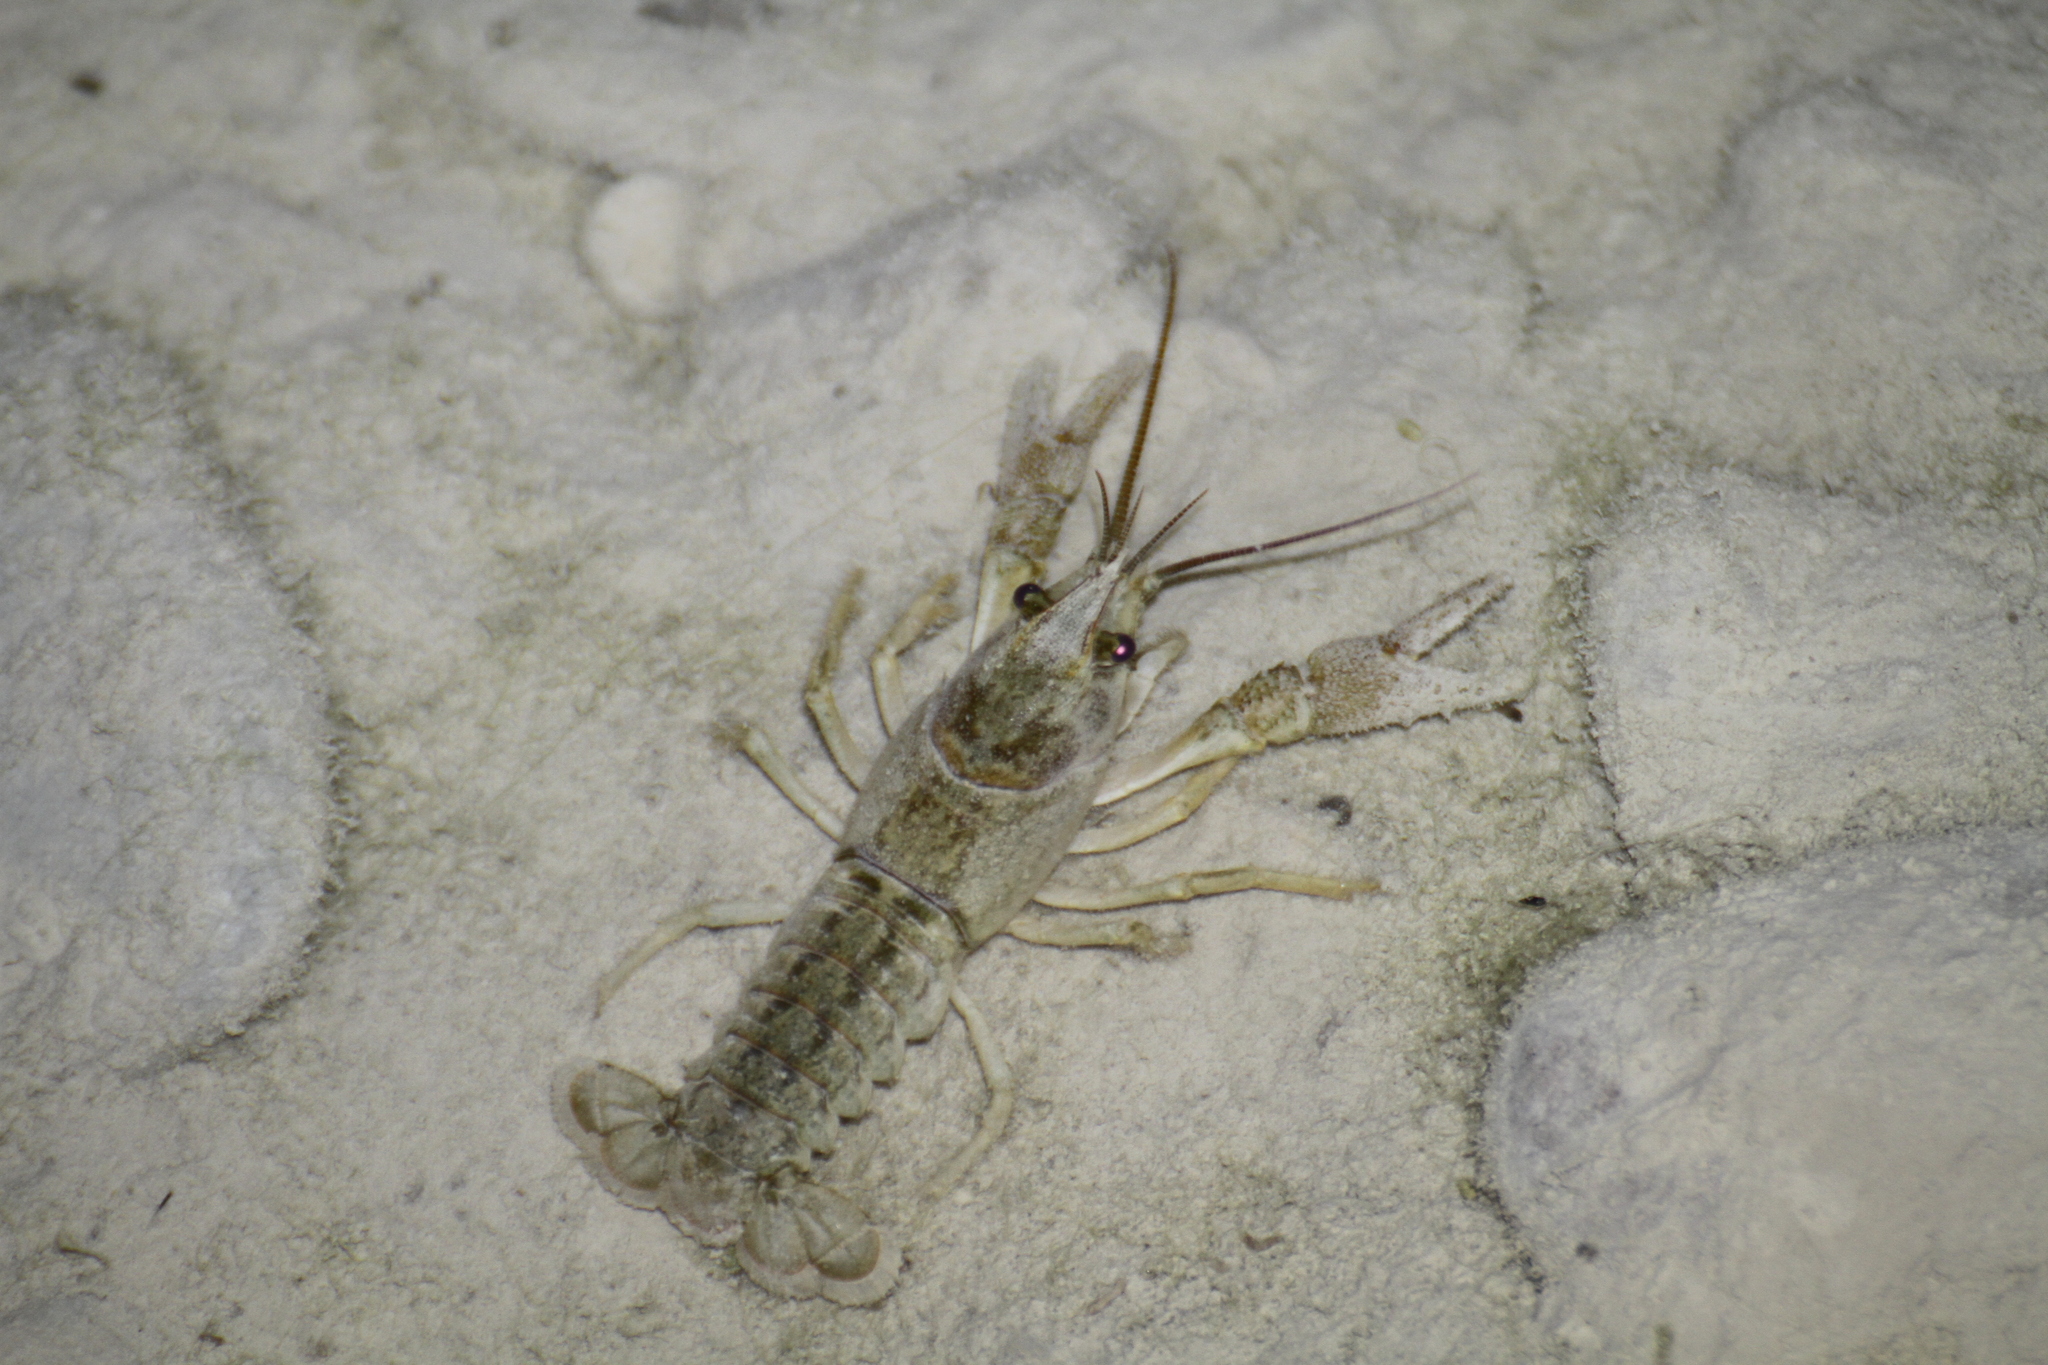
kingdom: Animalia
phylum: Arthropoda
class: Malacostraca
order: Decapoda
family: Astacidae
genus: Austropotamobius
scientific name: Austropotamobius pallipes
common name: White-clawed crayfish
